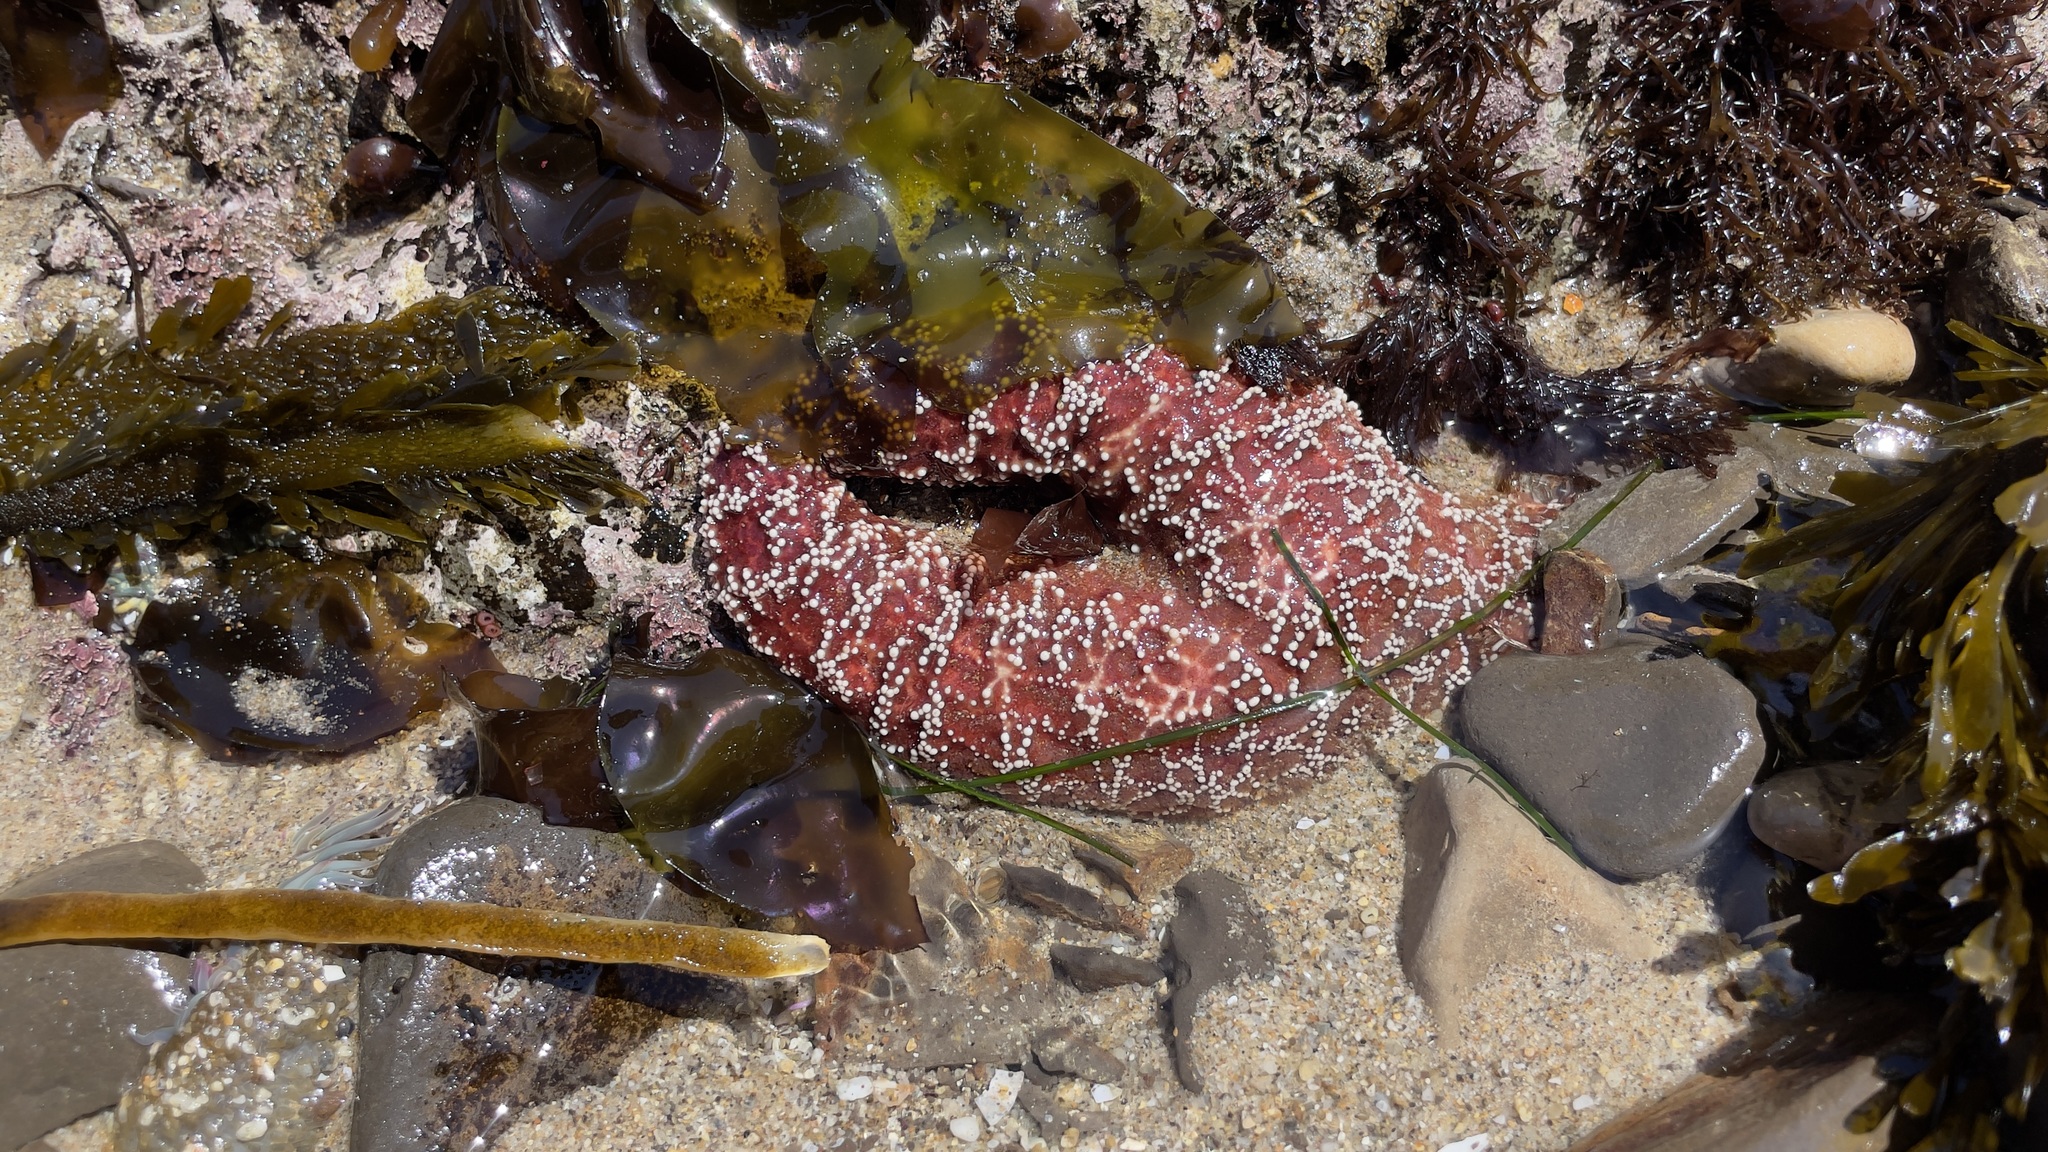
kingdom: Animalia
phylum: Echinodermata
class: Asteroidea
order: Forcipulatida
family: Asteriidae
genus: Pisaster
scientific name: Pisaster ochraceus
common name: Ochre stars
